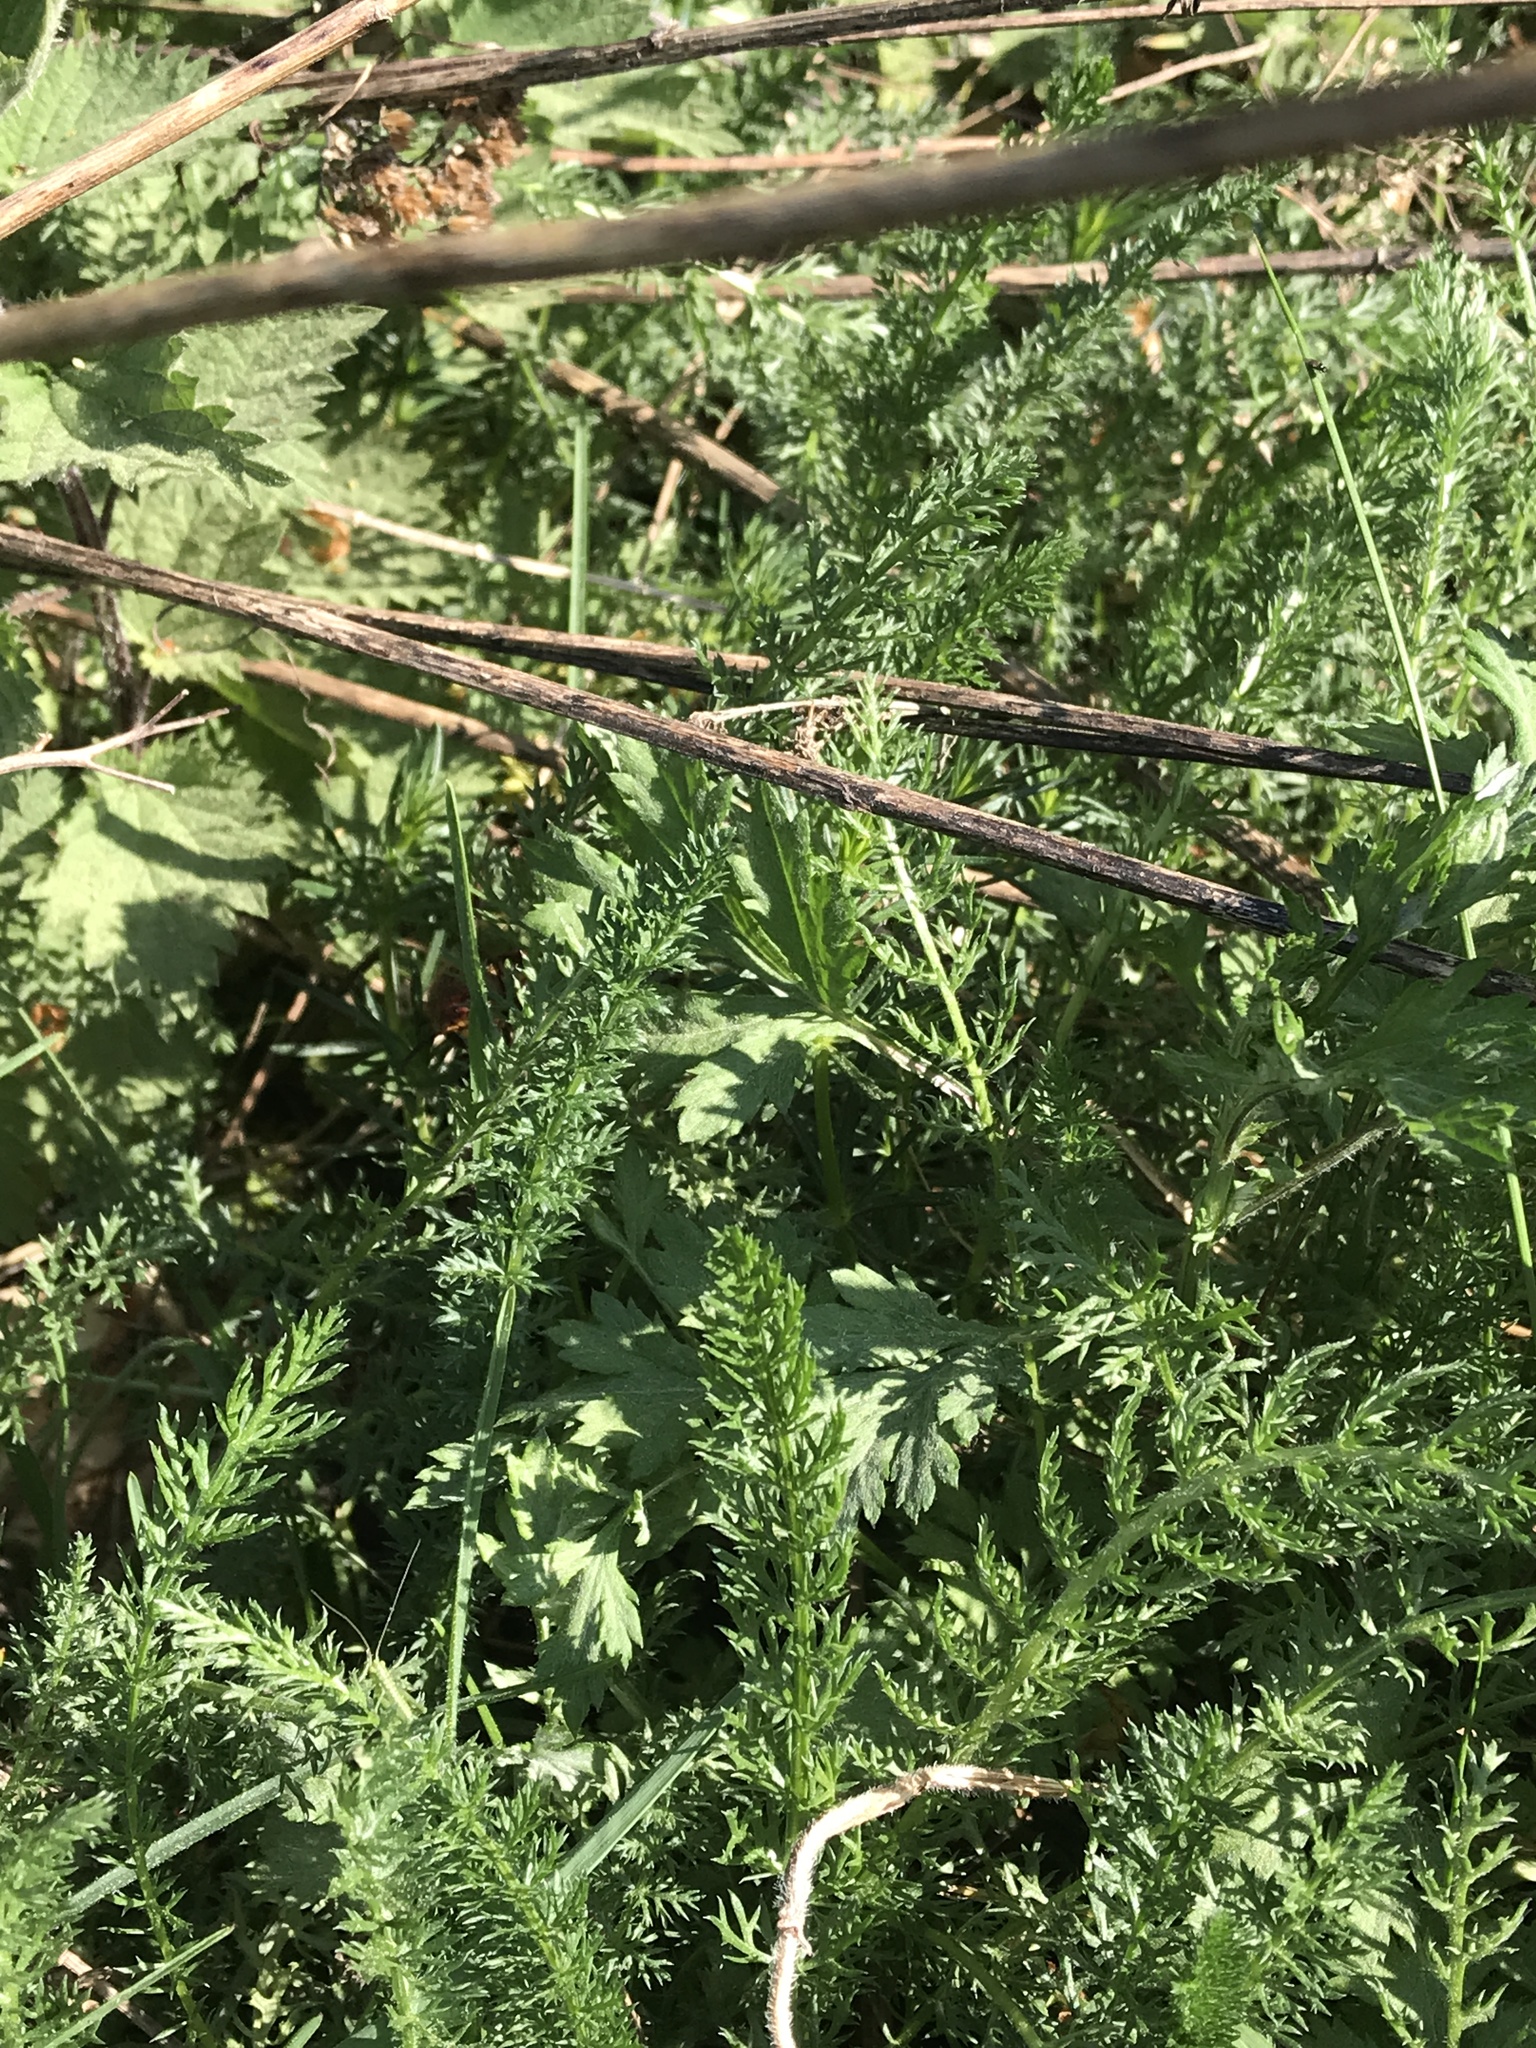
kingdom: Plantae
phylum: Tracheophyta
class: Magnoliopsida
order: Asterales
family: Asteraceae
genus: Achillea
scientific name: Achillea millefolium
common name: Yarrow
